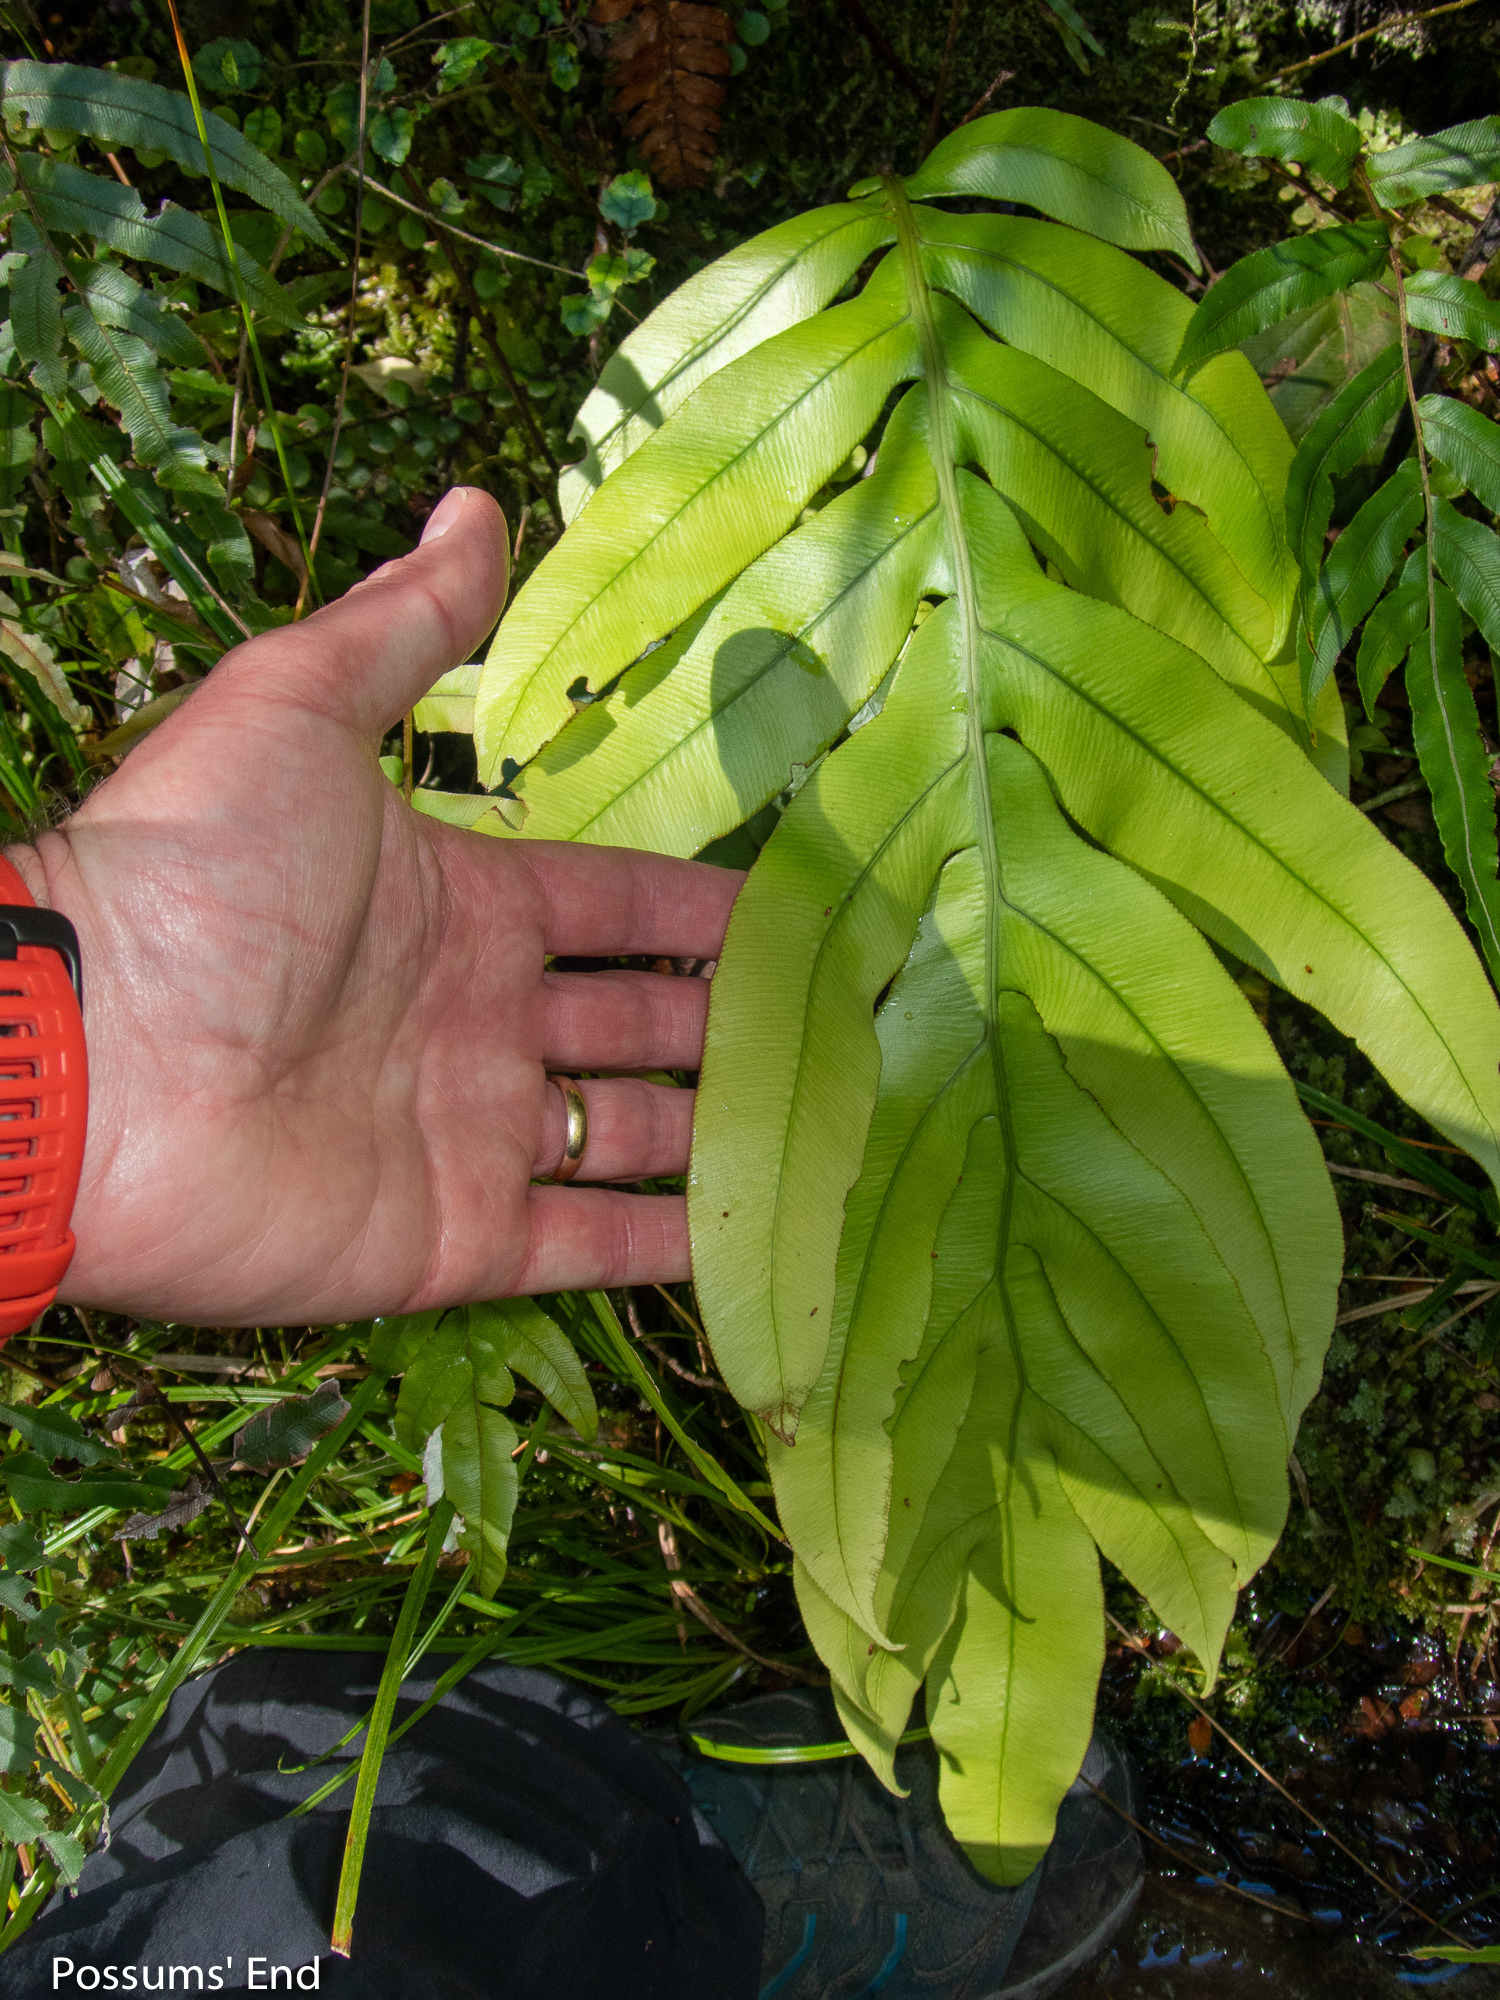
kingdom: Plantae
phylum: Tracheophyta
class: Polypodiopsida
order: Polypodiales
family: Blechnaceae
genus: Austroblechnum
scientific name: Austroblechnum colensoi
